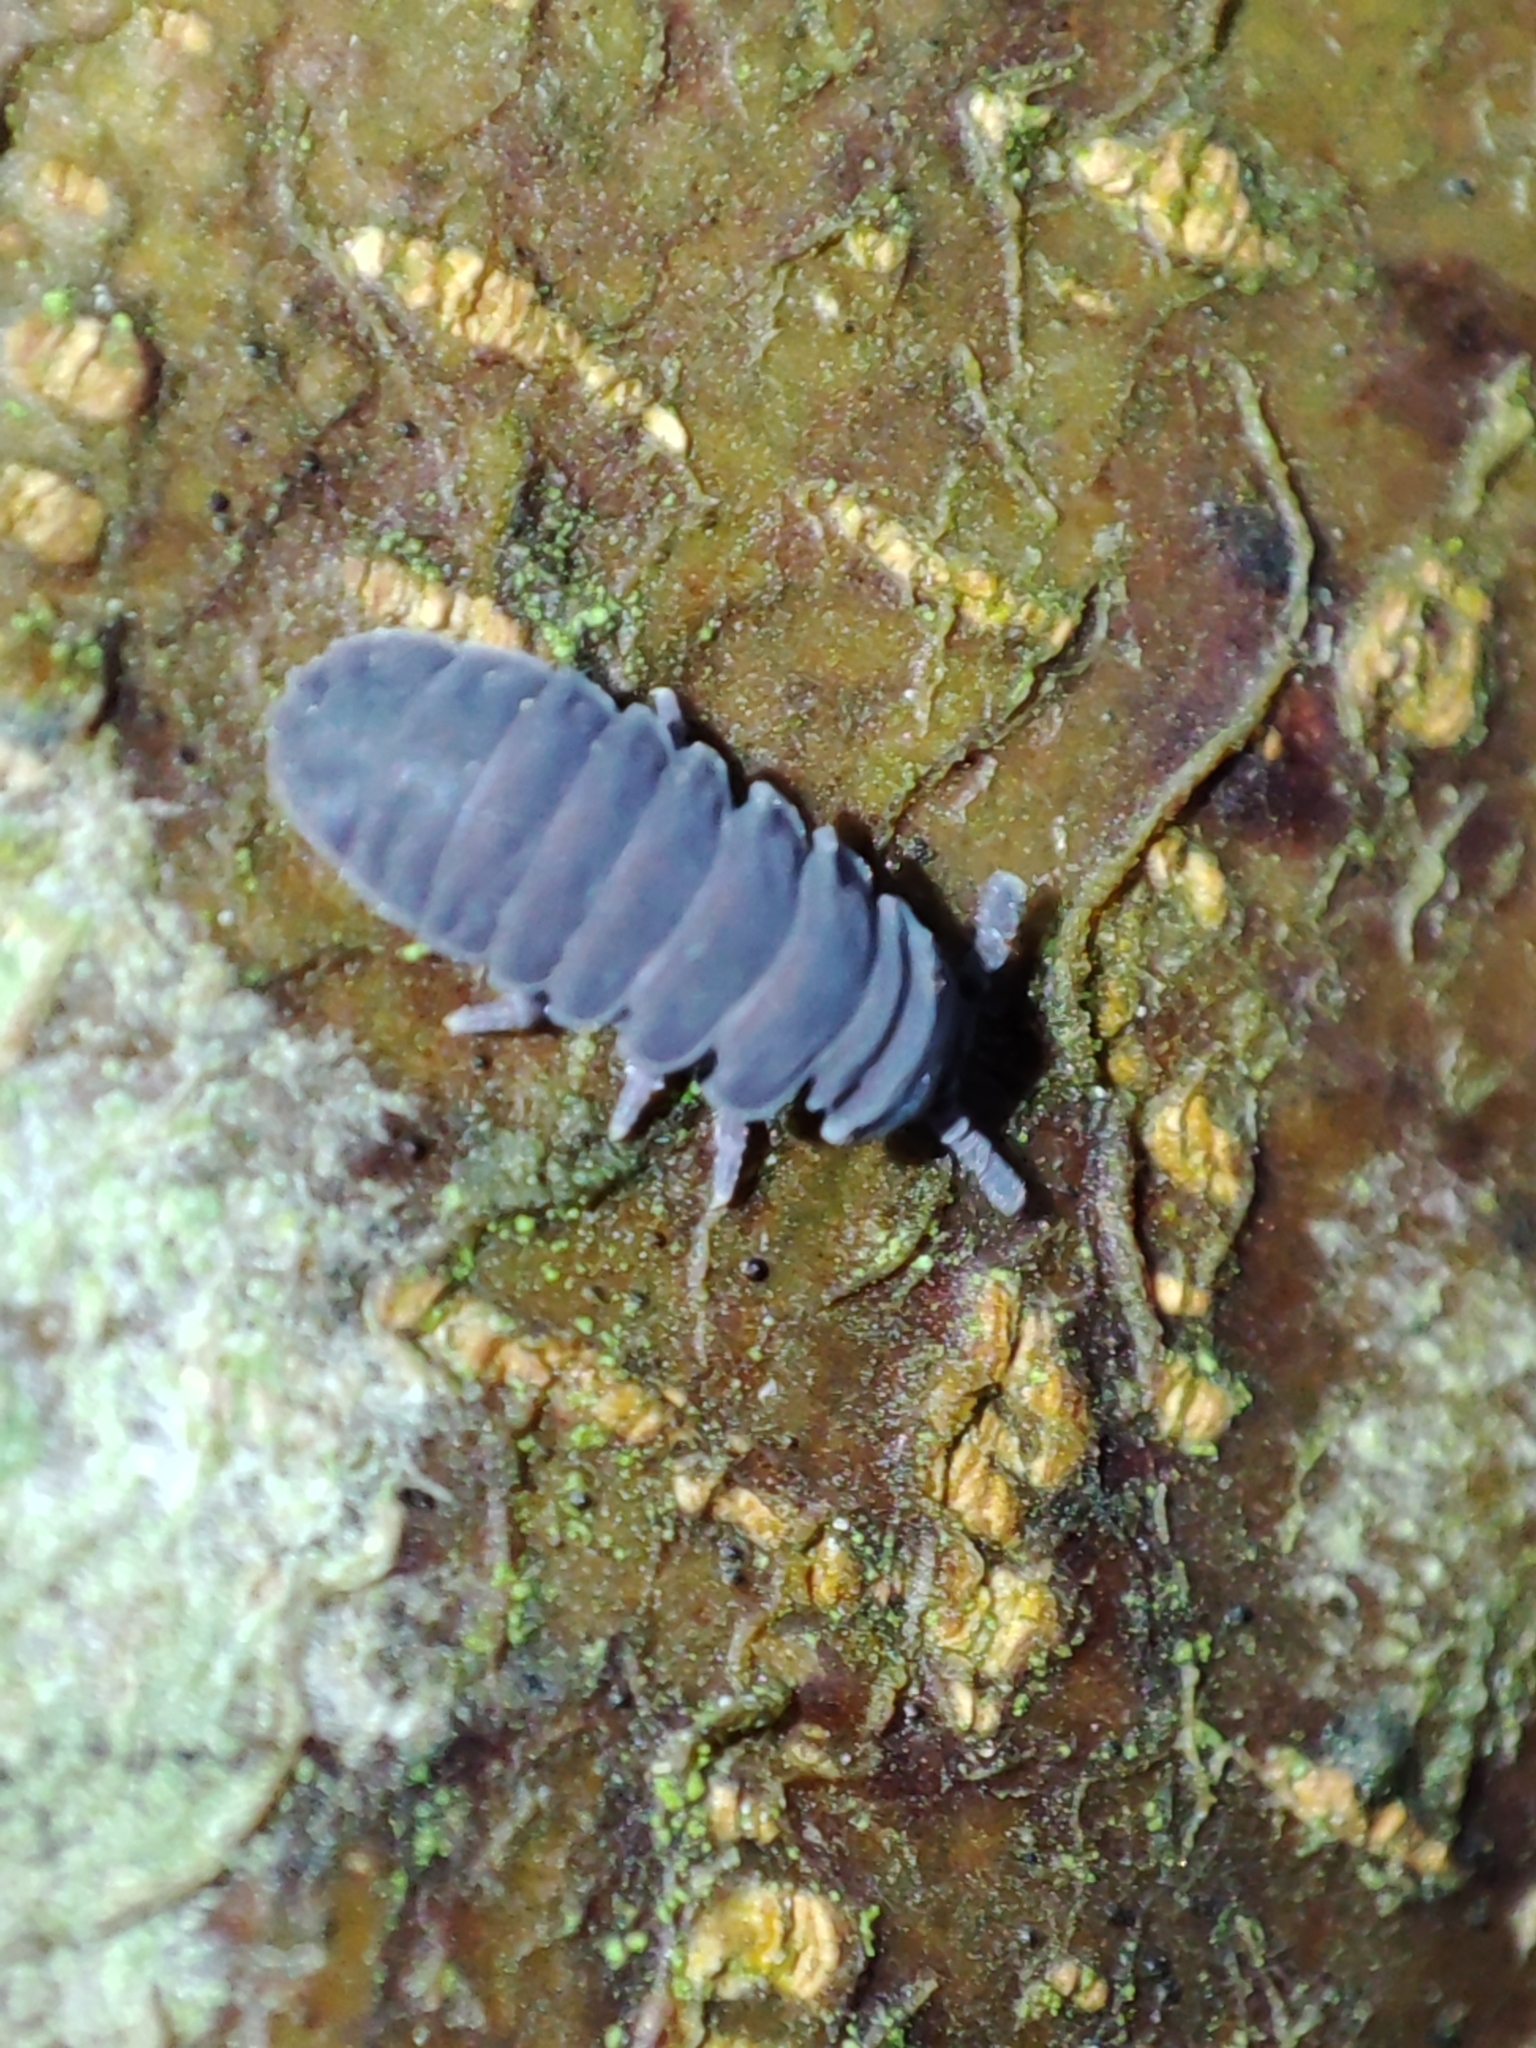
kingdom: Animalia
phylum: Arthropoda
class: Collembola
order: Poduromorpha
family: Onychiuridae
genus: Tetrodontophora
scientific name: Tetrodontophora bielanensis
